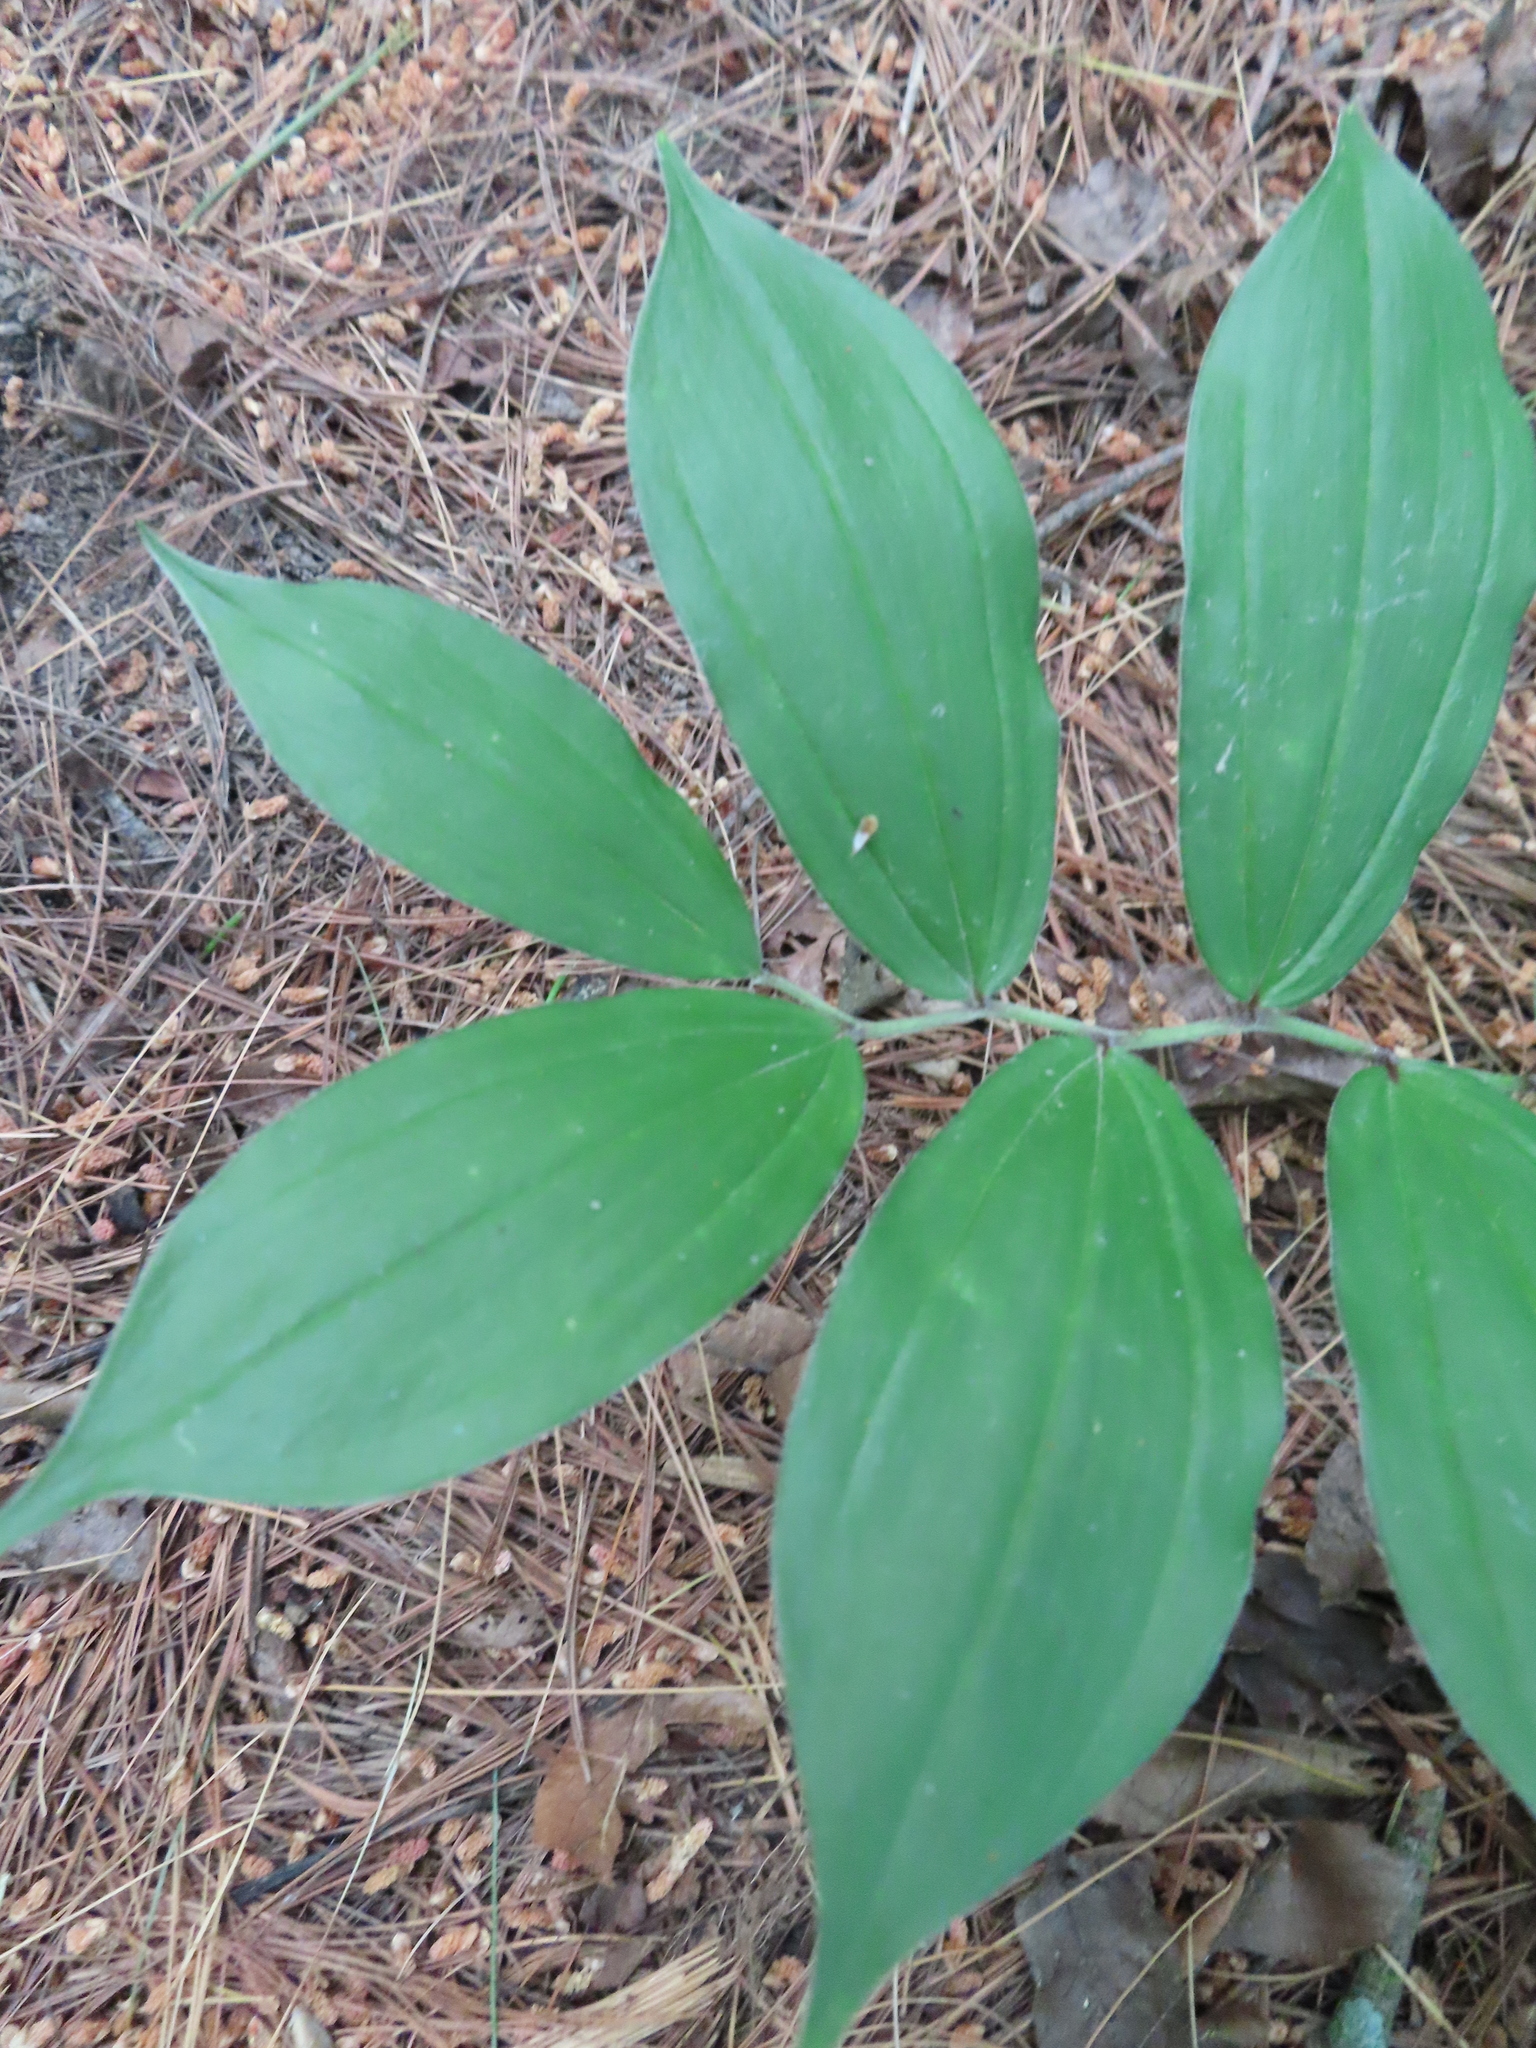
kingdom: Plantae
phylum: Tracheophyta
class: Liliopsida
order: Asparagales
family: Asparagaceae
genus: Maianthemum
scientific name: Maianthemum racemosum
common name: False spikenard
